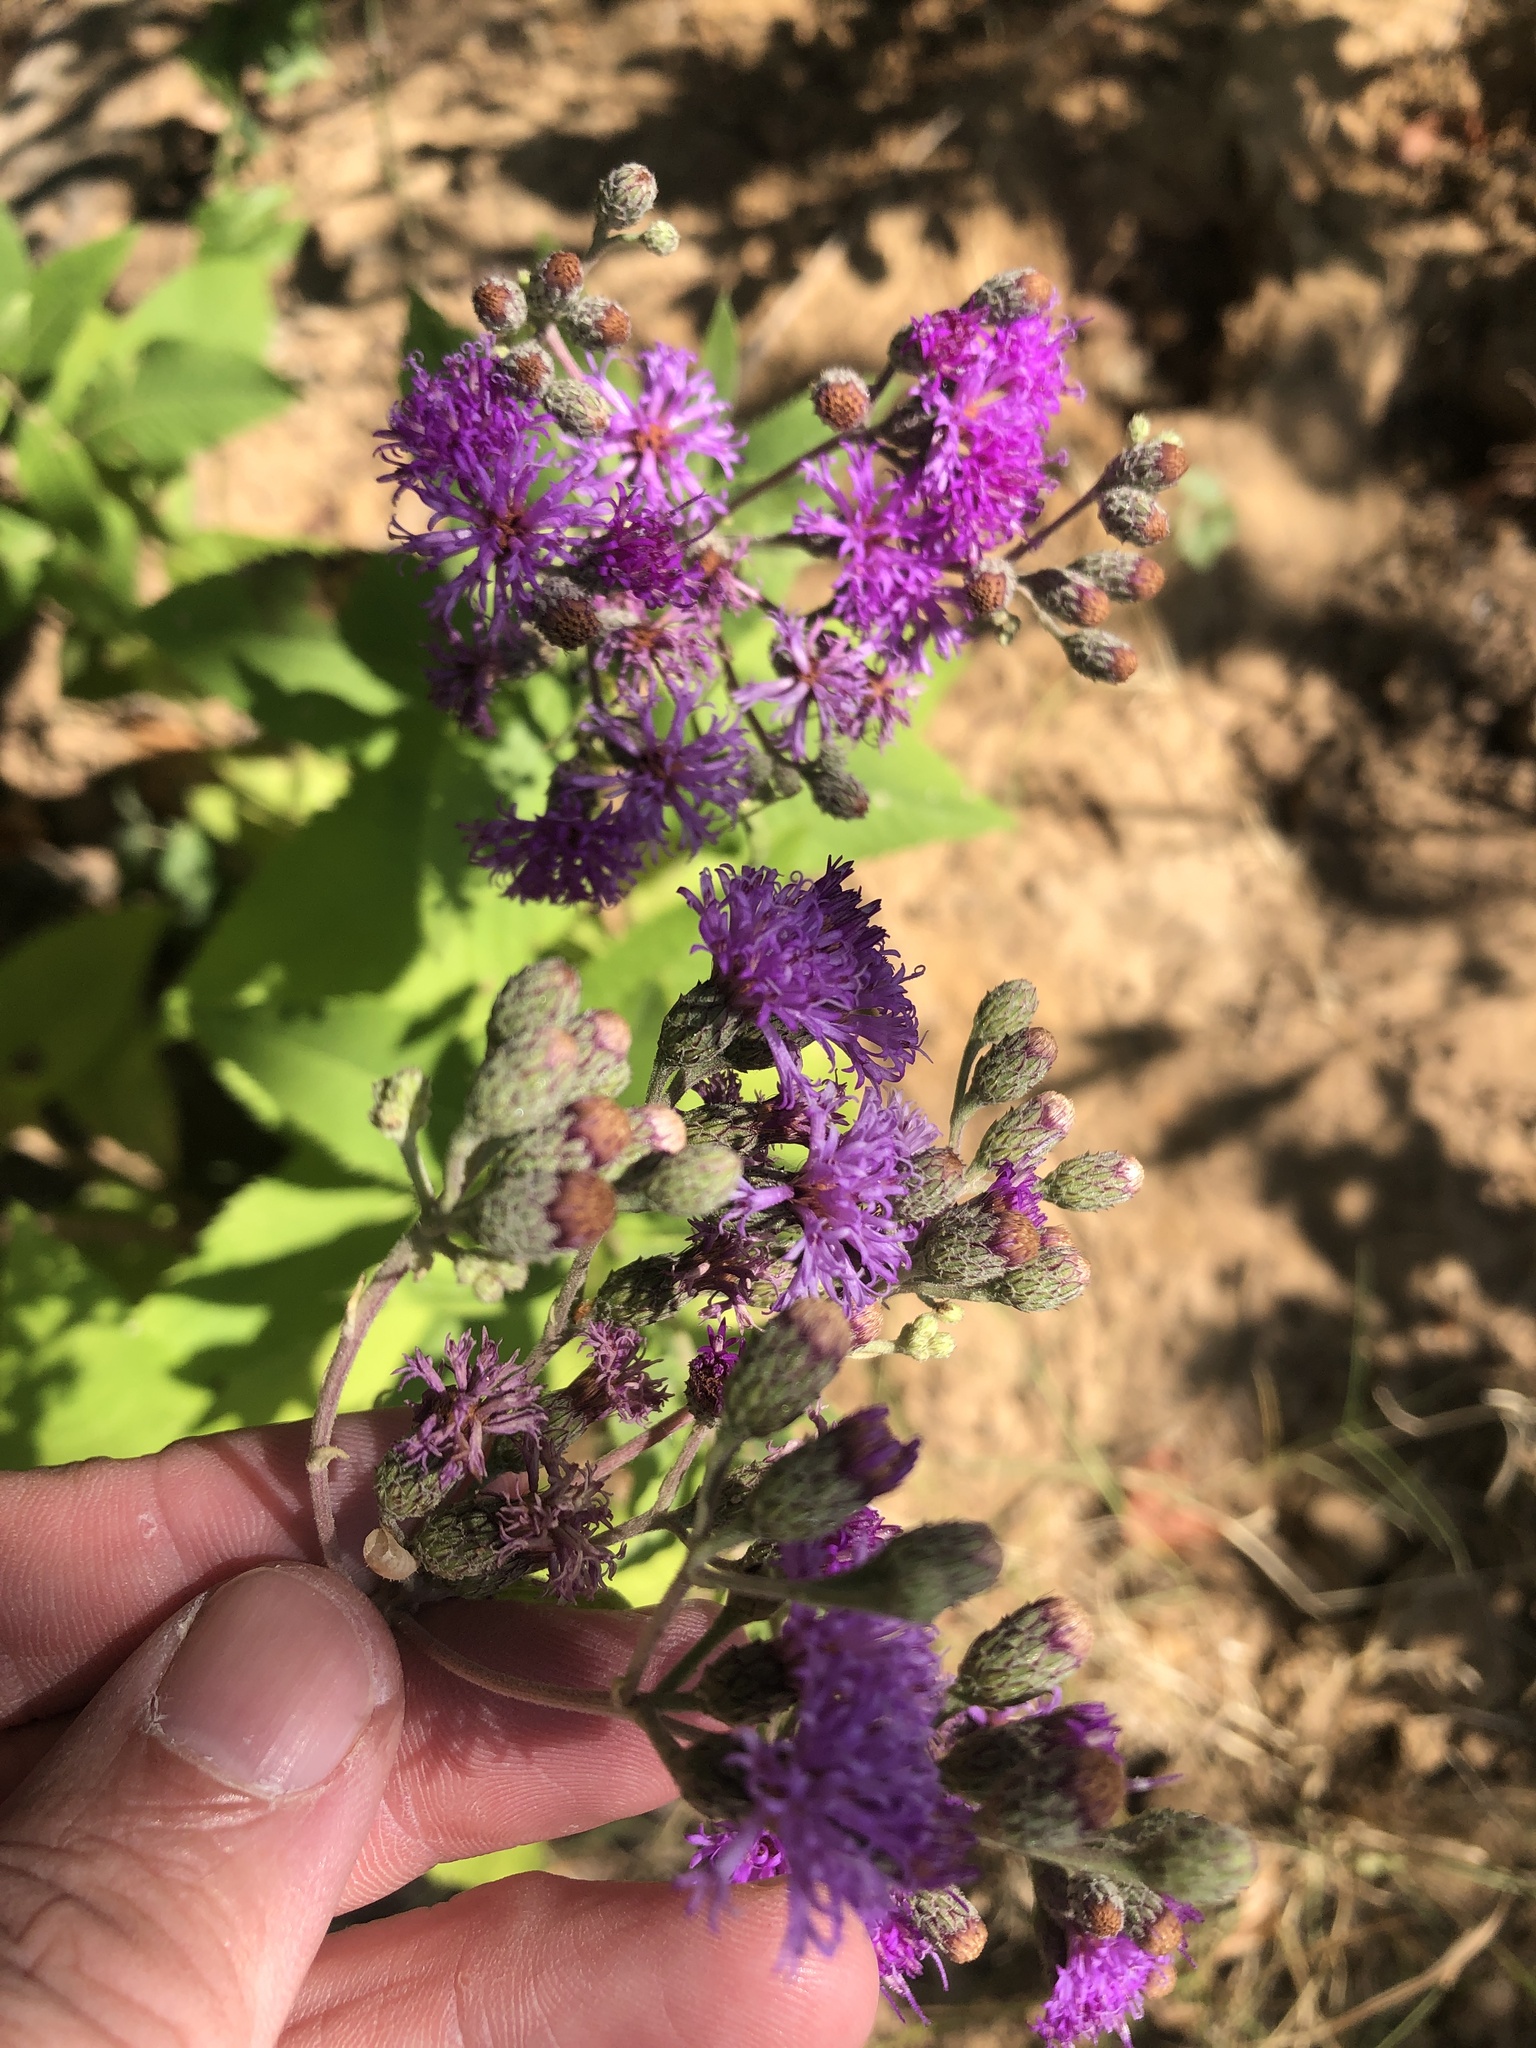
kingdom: Plantae
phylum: Tracheophyta
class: Magnoliopsida
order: Asterales
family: Asteraceae
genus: Vernonia
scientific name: Vernonia baldwinii
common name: Western ironweed
